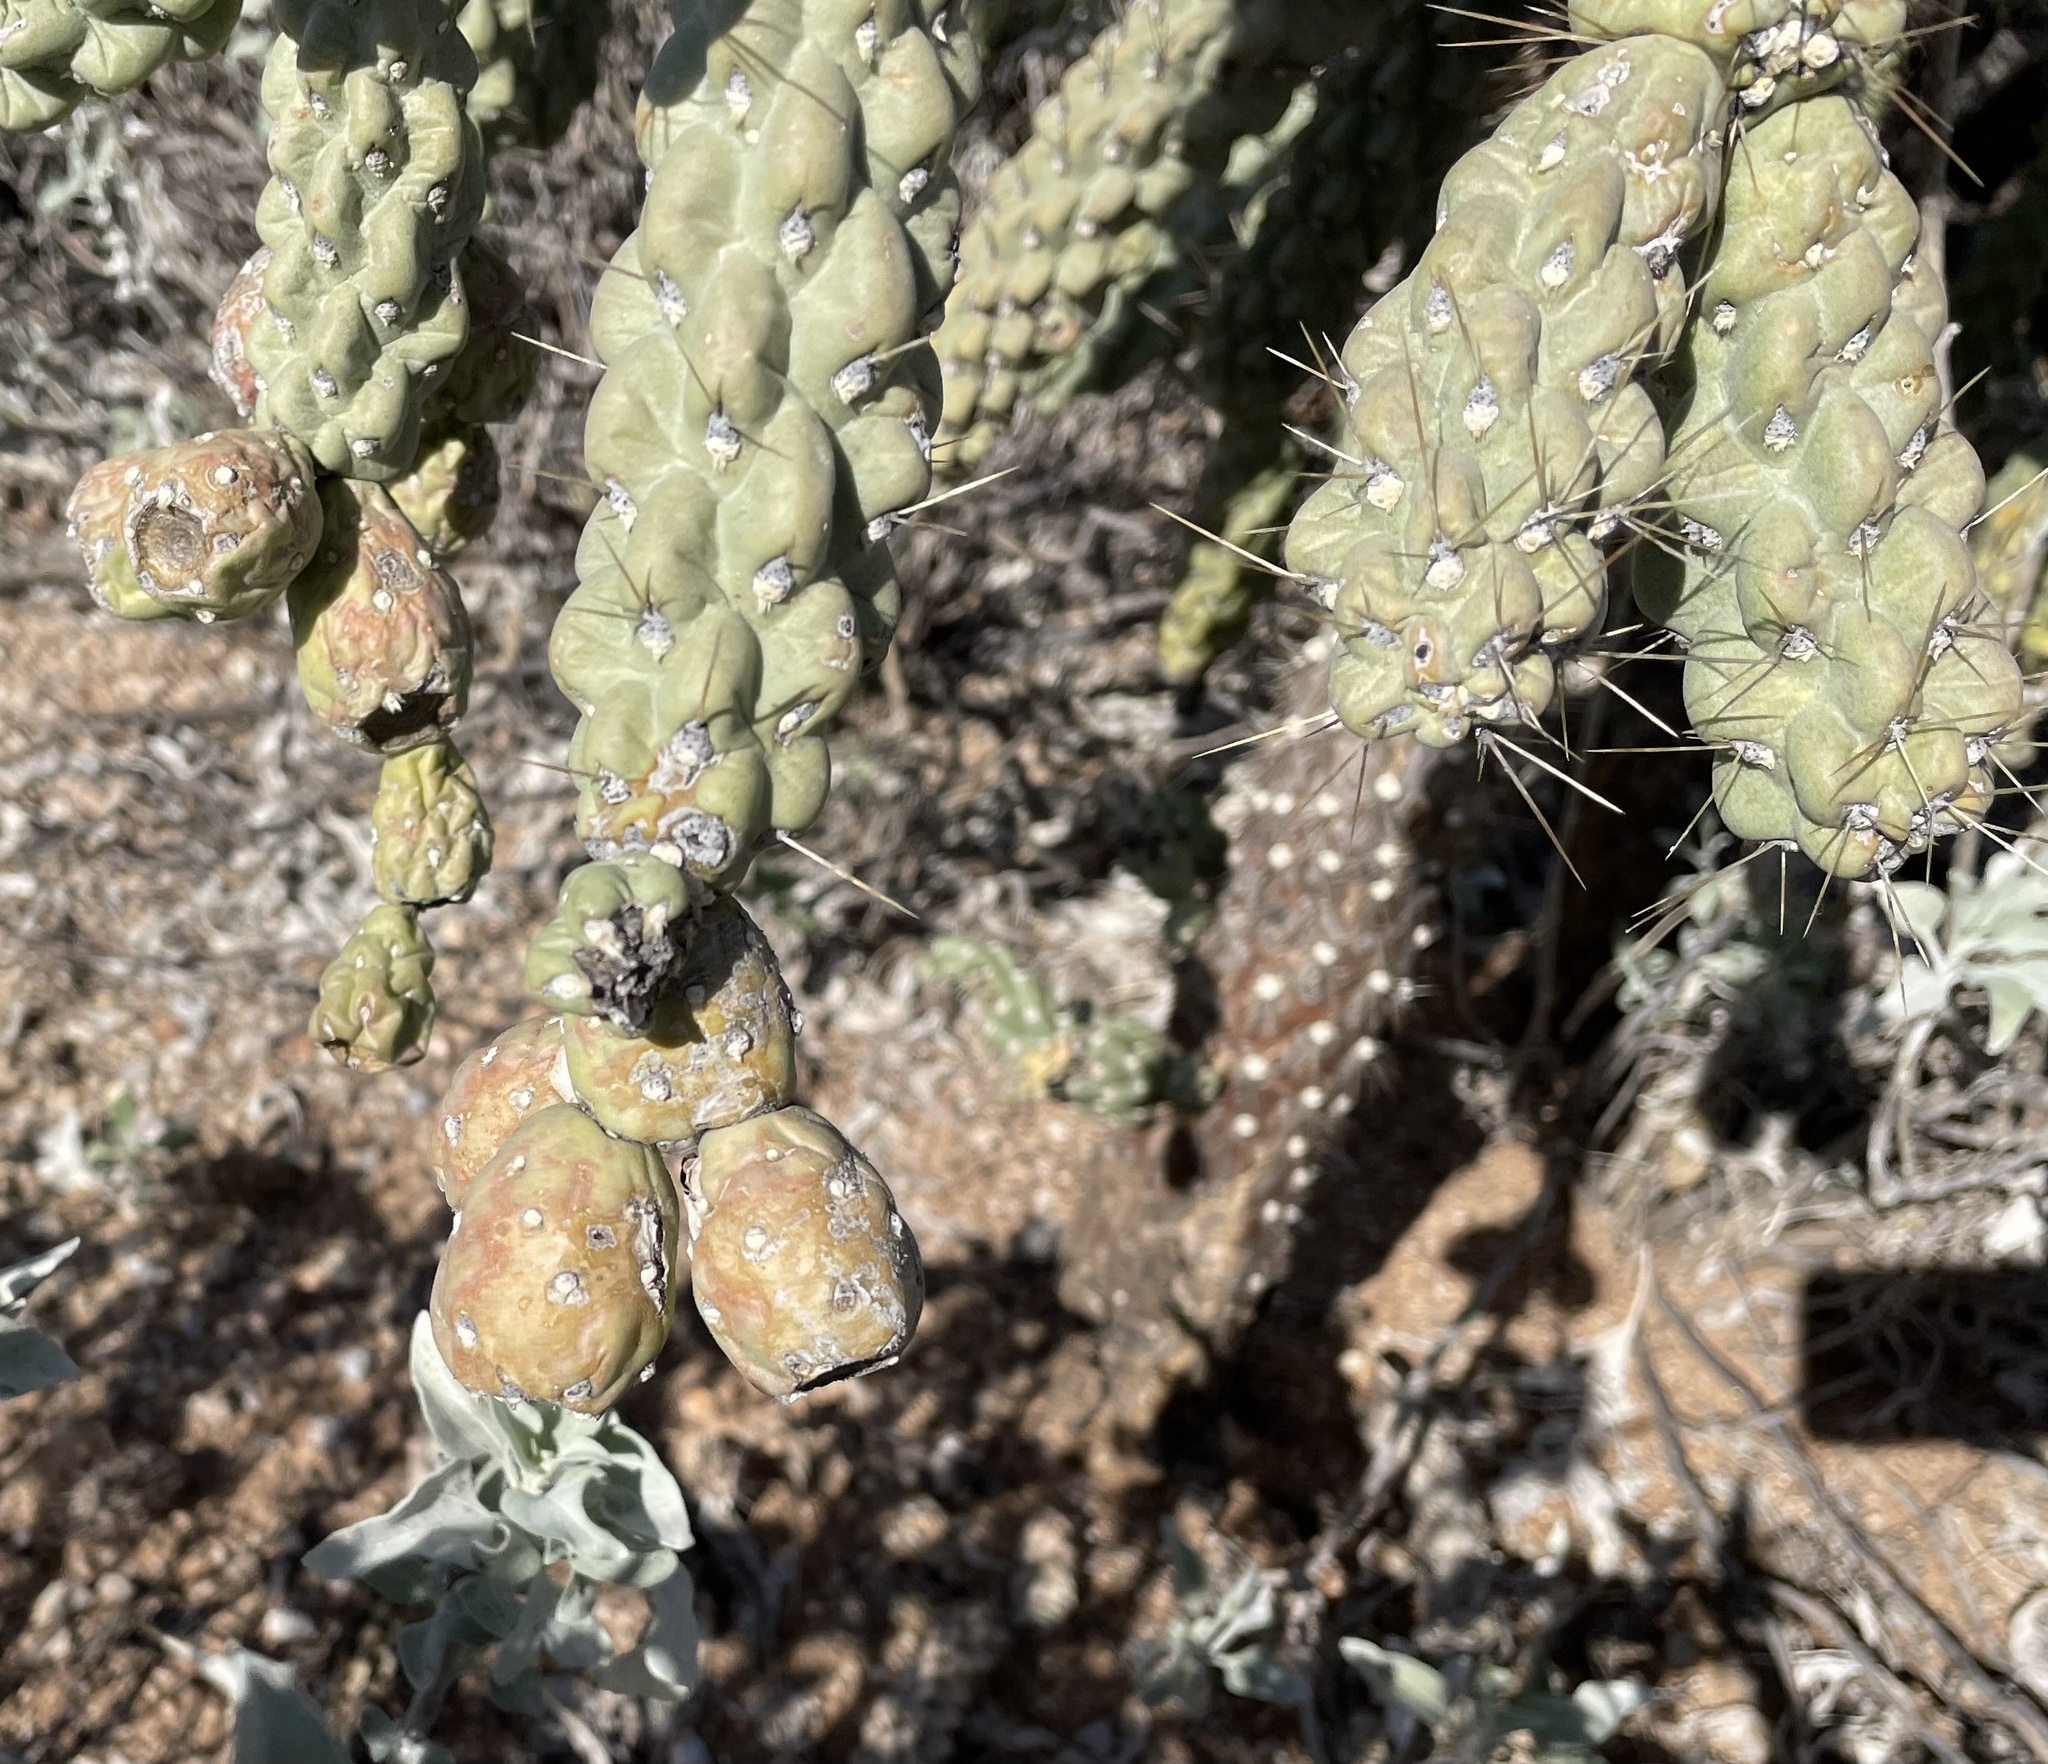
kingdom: Plantae
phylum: Tracheophyta
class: Magnoliopsida
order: Caryophyllales
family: Cactaceae
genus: Cylindropuntia
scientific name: Cylindropuntia fulgida
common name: Jumping cholla
